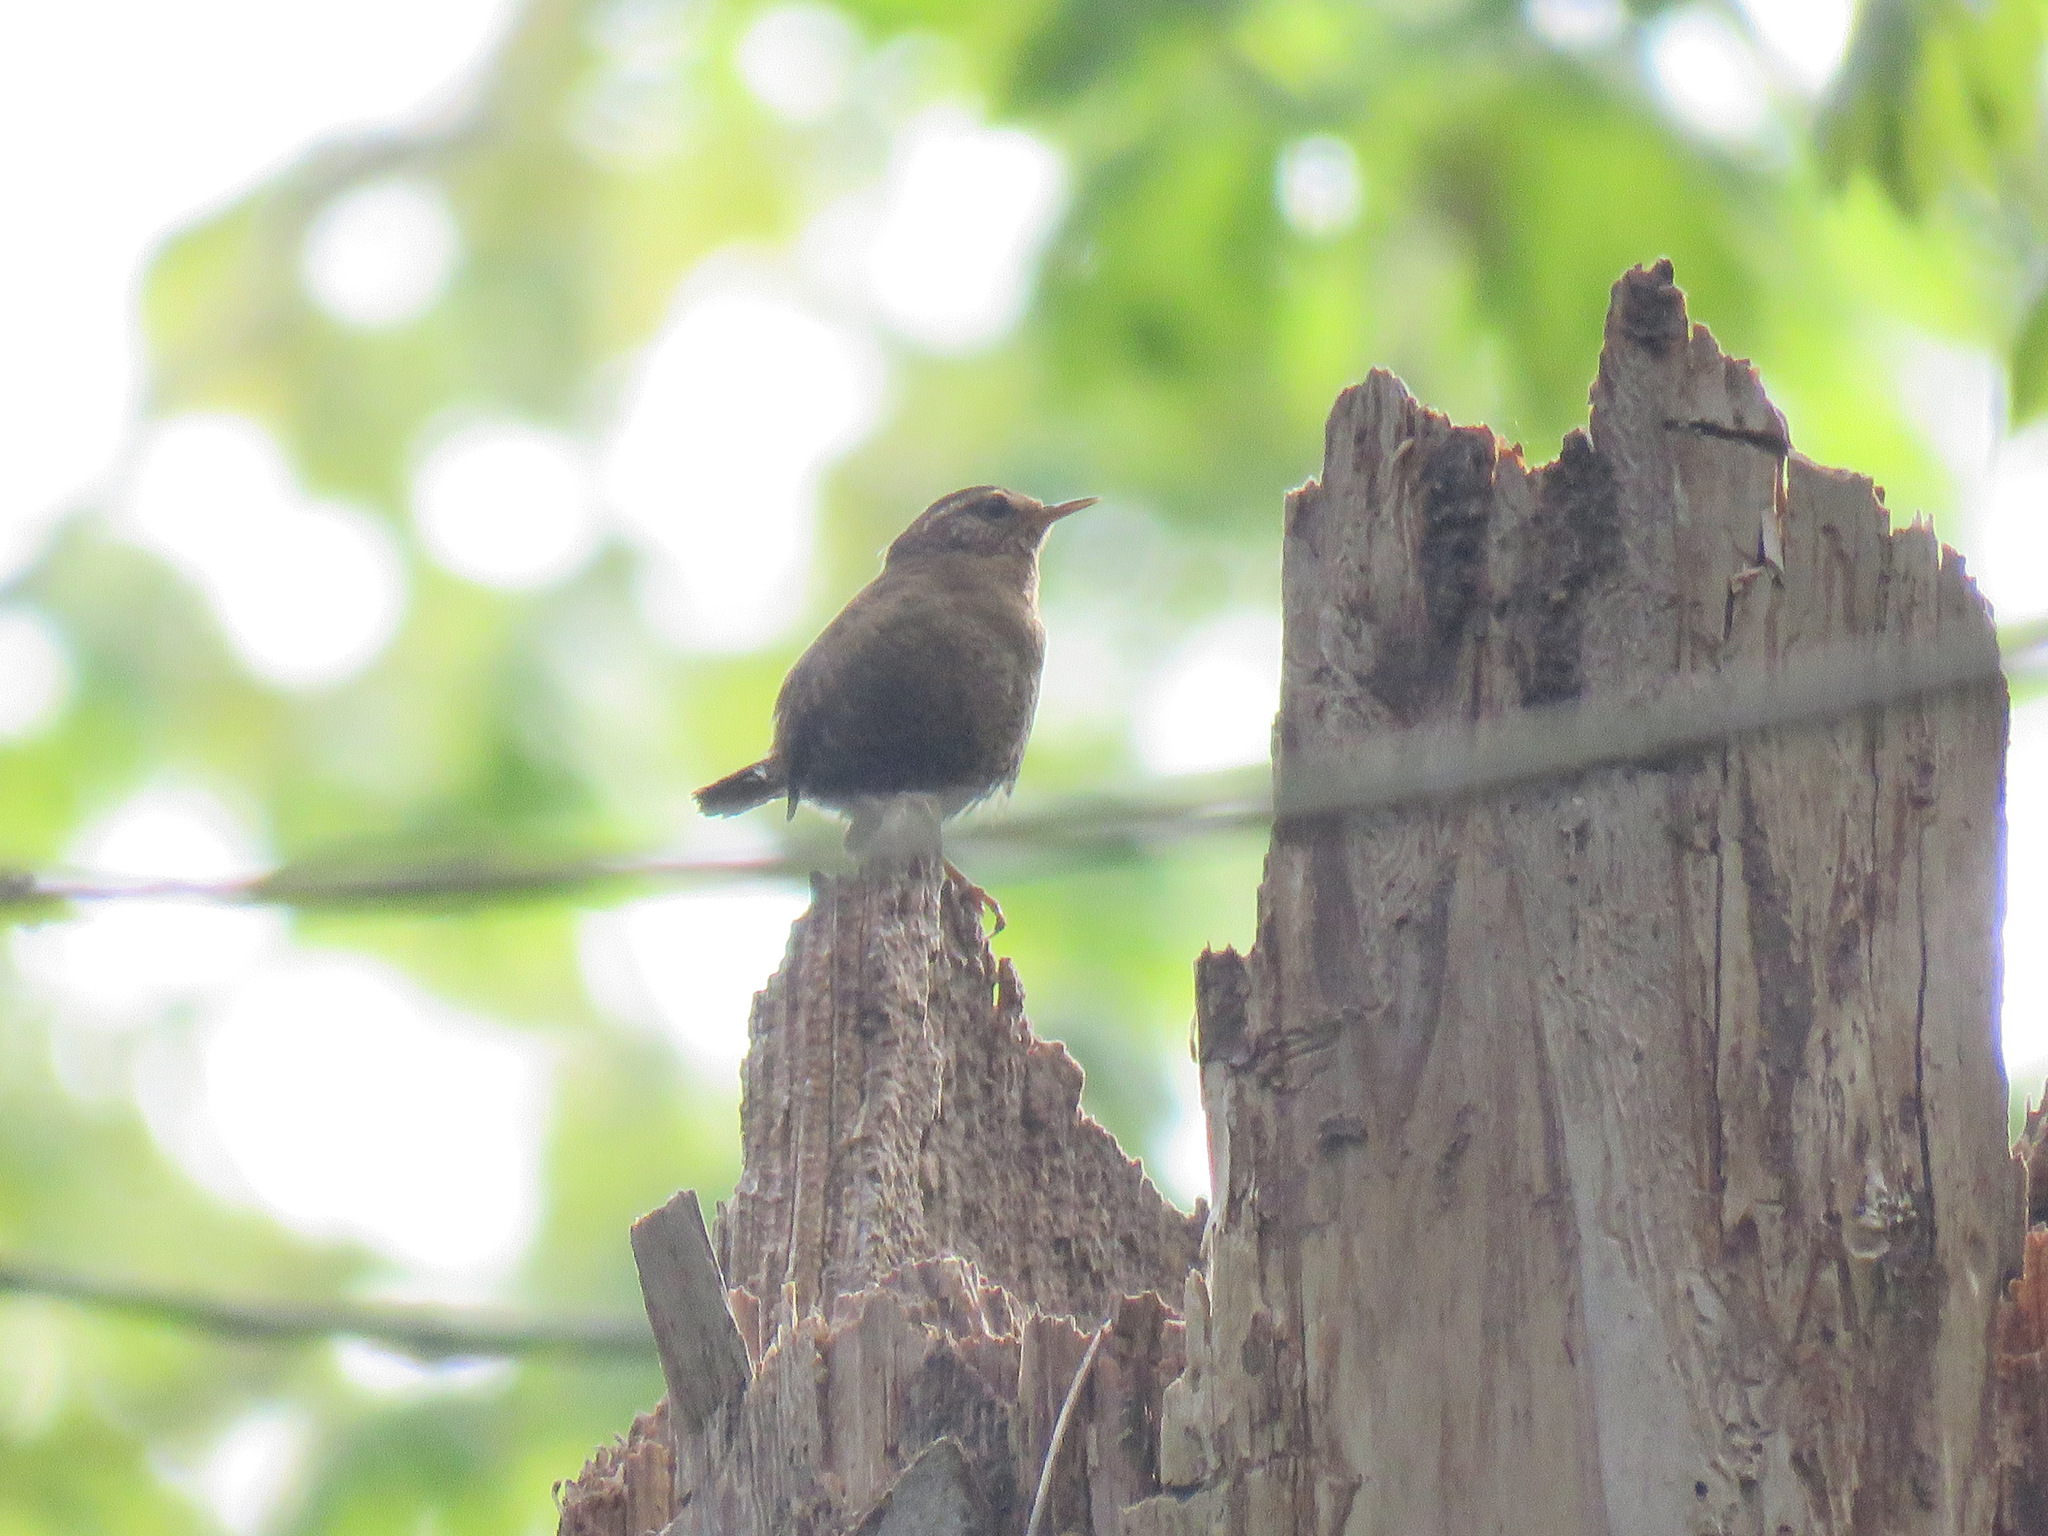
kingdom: Animalia
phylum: Chordata
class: Aves
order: Passeriformes
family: Troglodytidae
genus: Troglodytes
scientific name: Troglodytes pacificus
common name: Pacific wren
